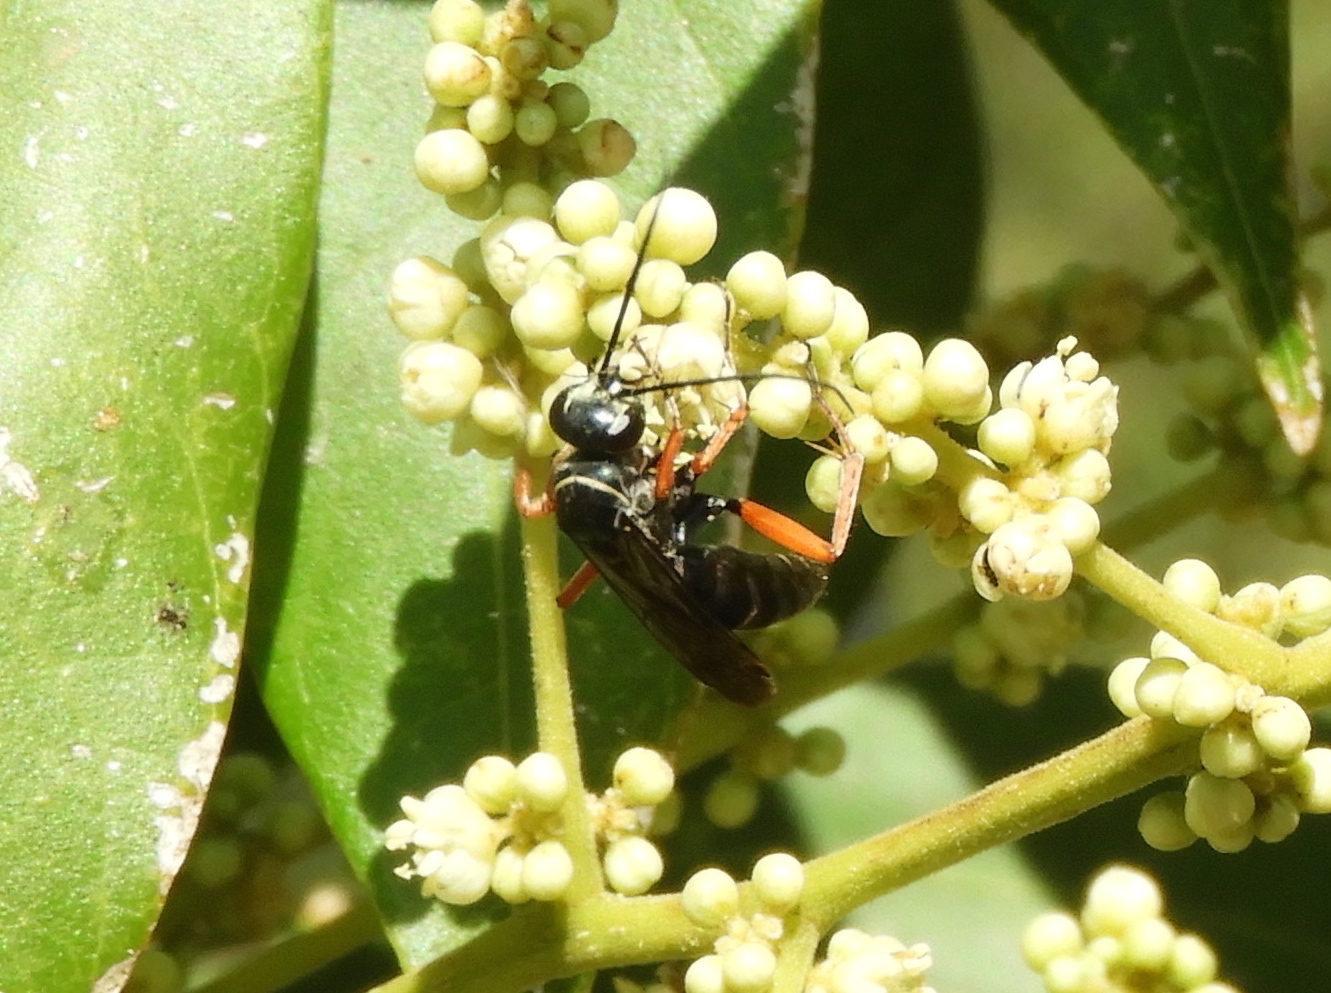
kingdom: Animalia
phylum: Arthropoda
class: Insecta
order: Hymenoptera
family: Pompilidae
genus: Episyron
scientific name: Episyron conterminus
